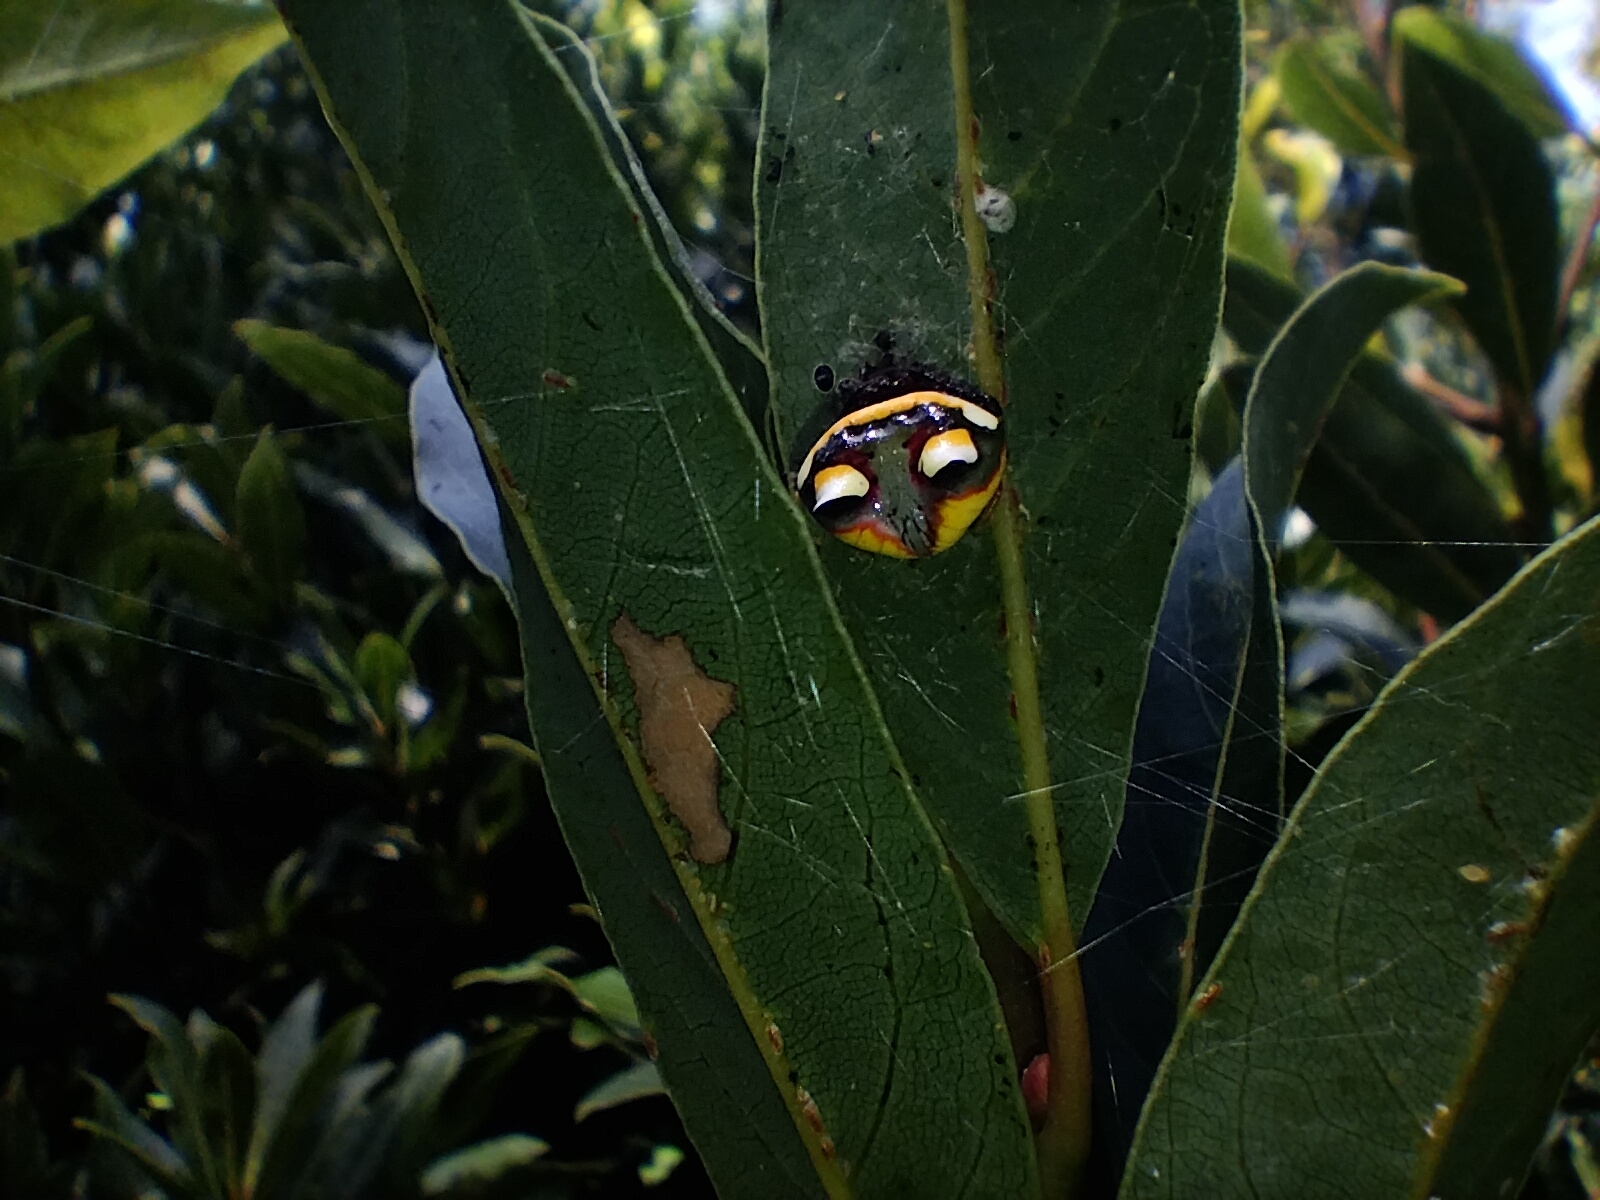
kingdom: Animalia
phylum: Arthropoda
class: Arachnida
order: Araneae
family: Araneidae
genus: Poecilopachys
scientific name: Poecilopachys australasia
